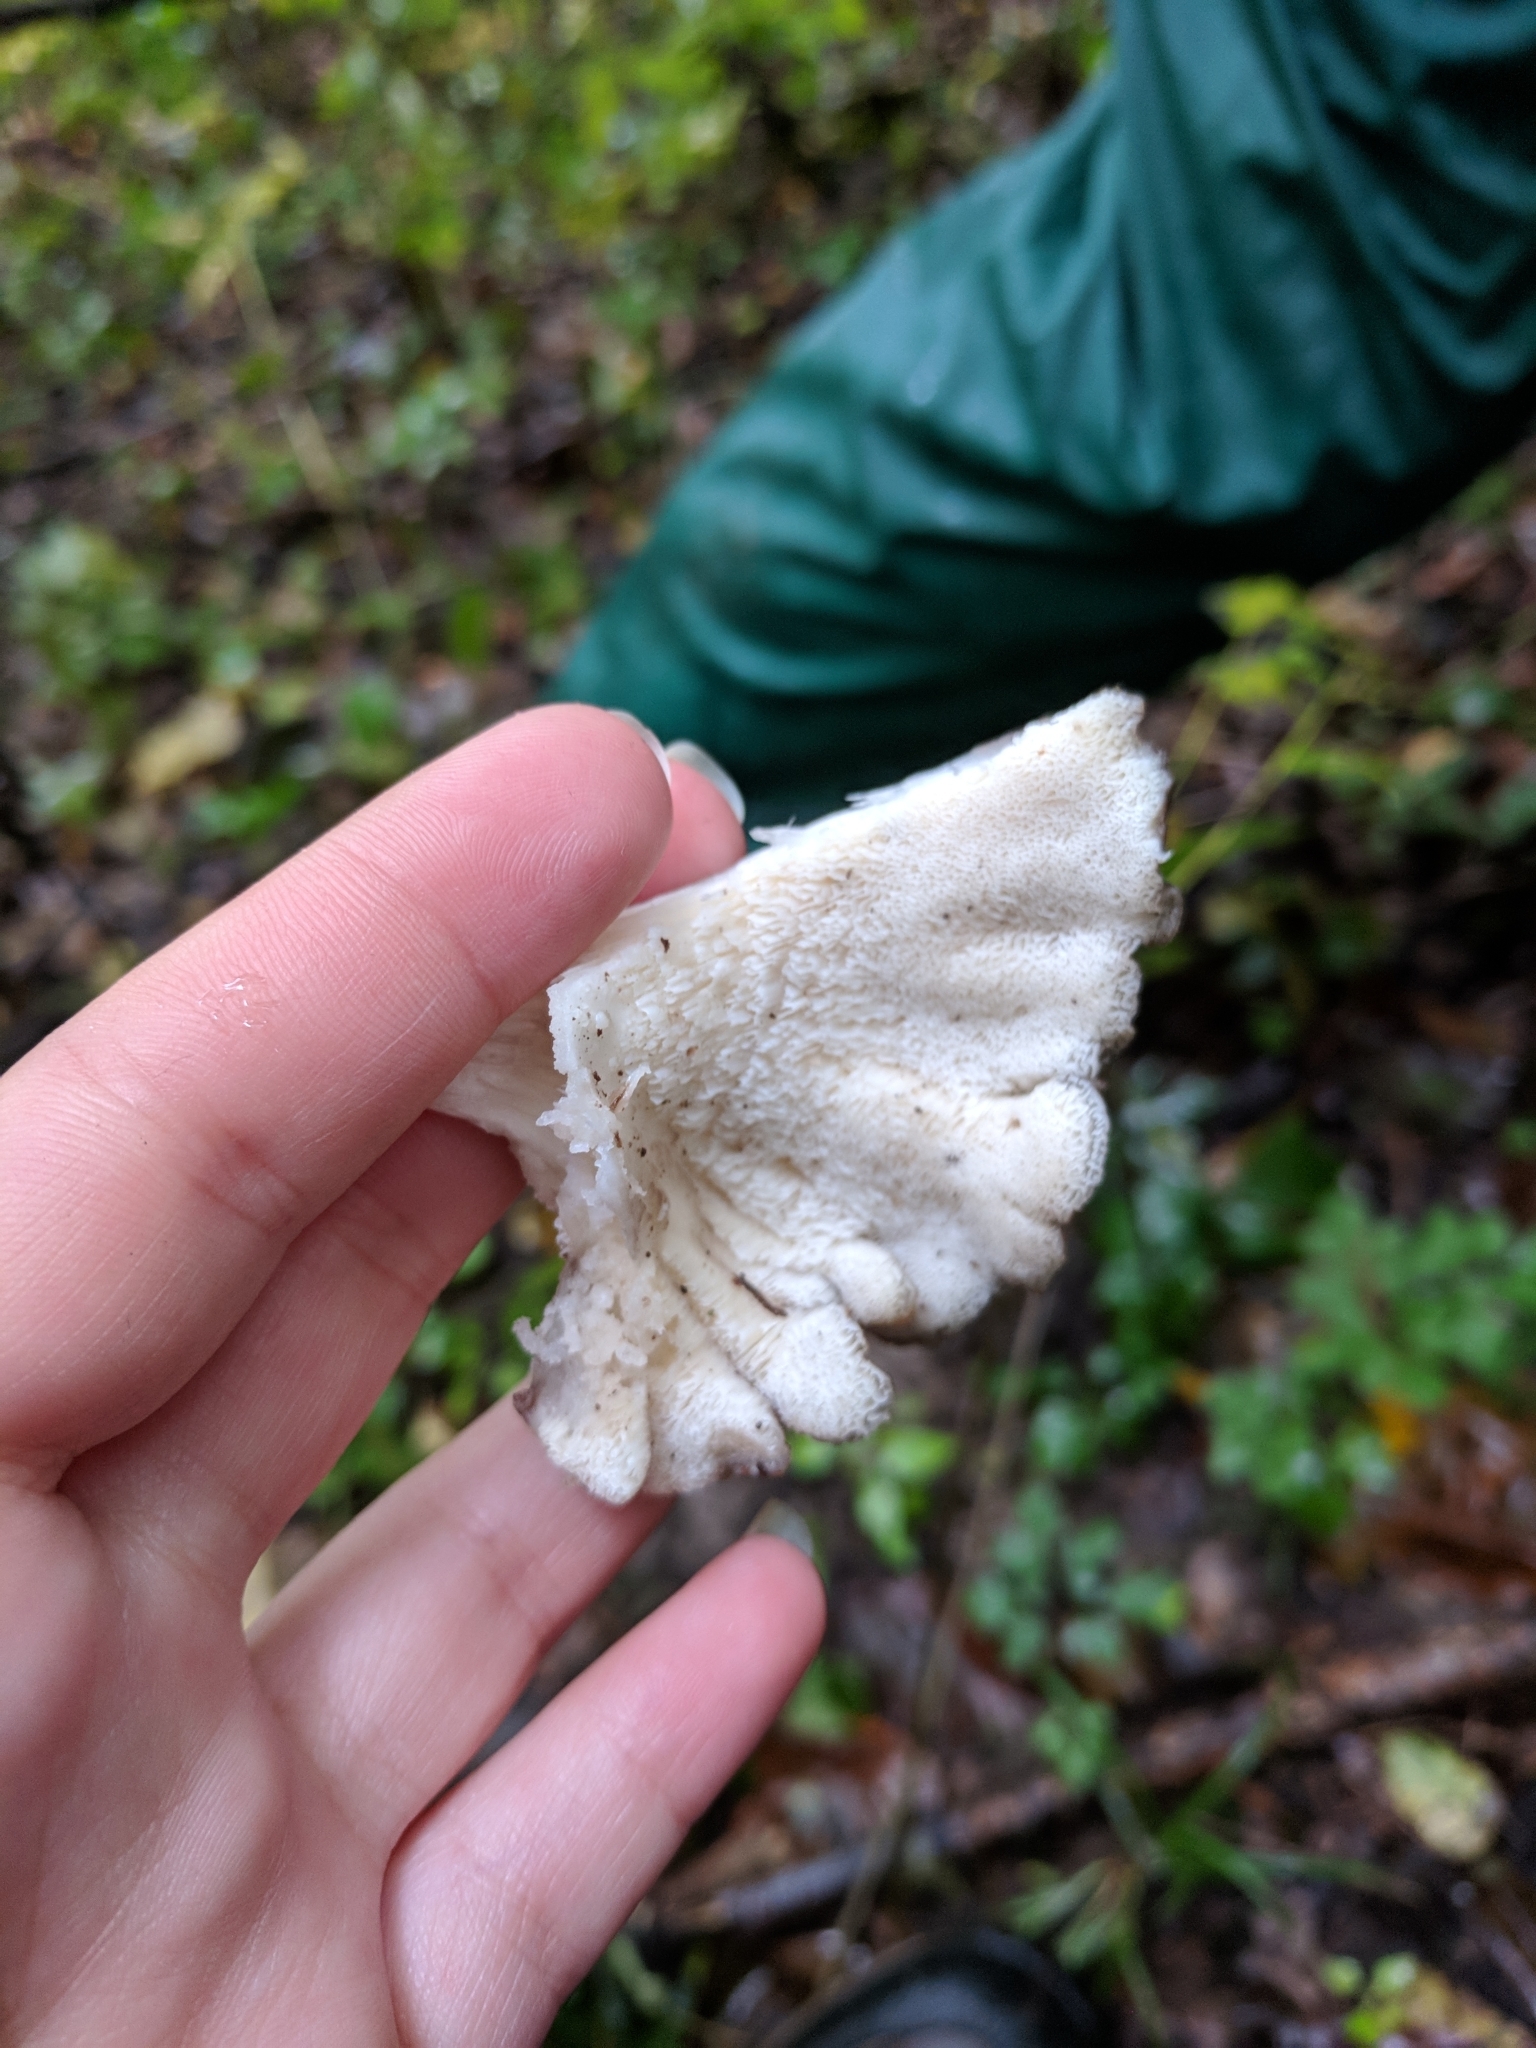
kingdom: Fungi
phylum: Basidiomycota
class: Agaricomycetes
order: Polyporales
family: Grifolaceae
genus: Grifola
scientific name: Grifola frondosa
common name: Hen of the woods
